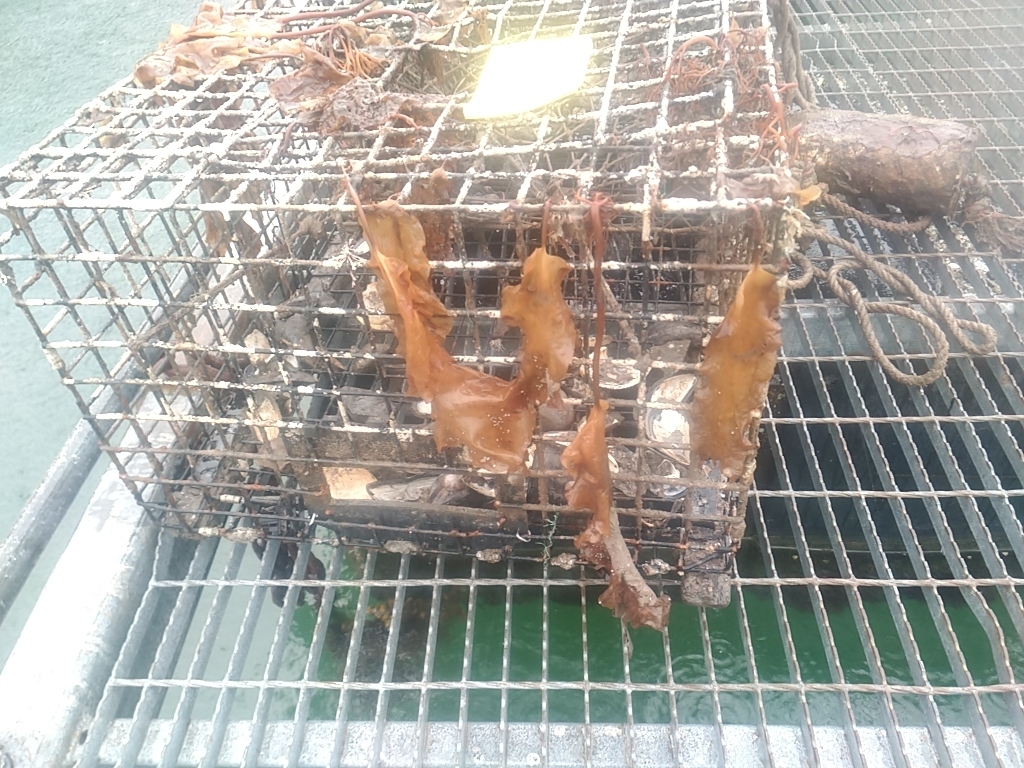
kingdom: Chromista
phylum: Ochrophyta
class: Phaeophyceae
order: Laminariales
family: Laminariaceae
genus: Saccharina
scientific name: Saccharina latissima
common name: Poor man's weather glass
